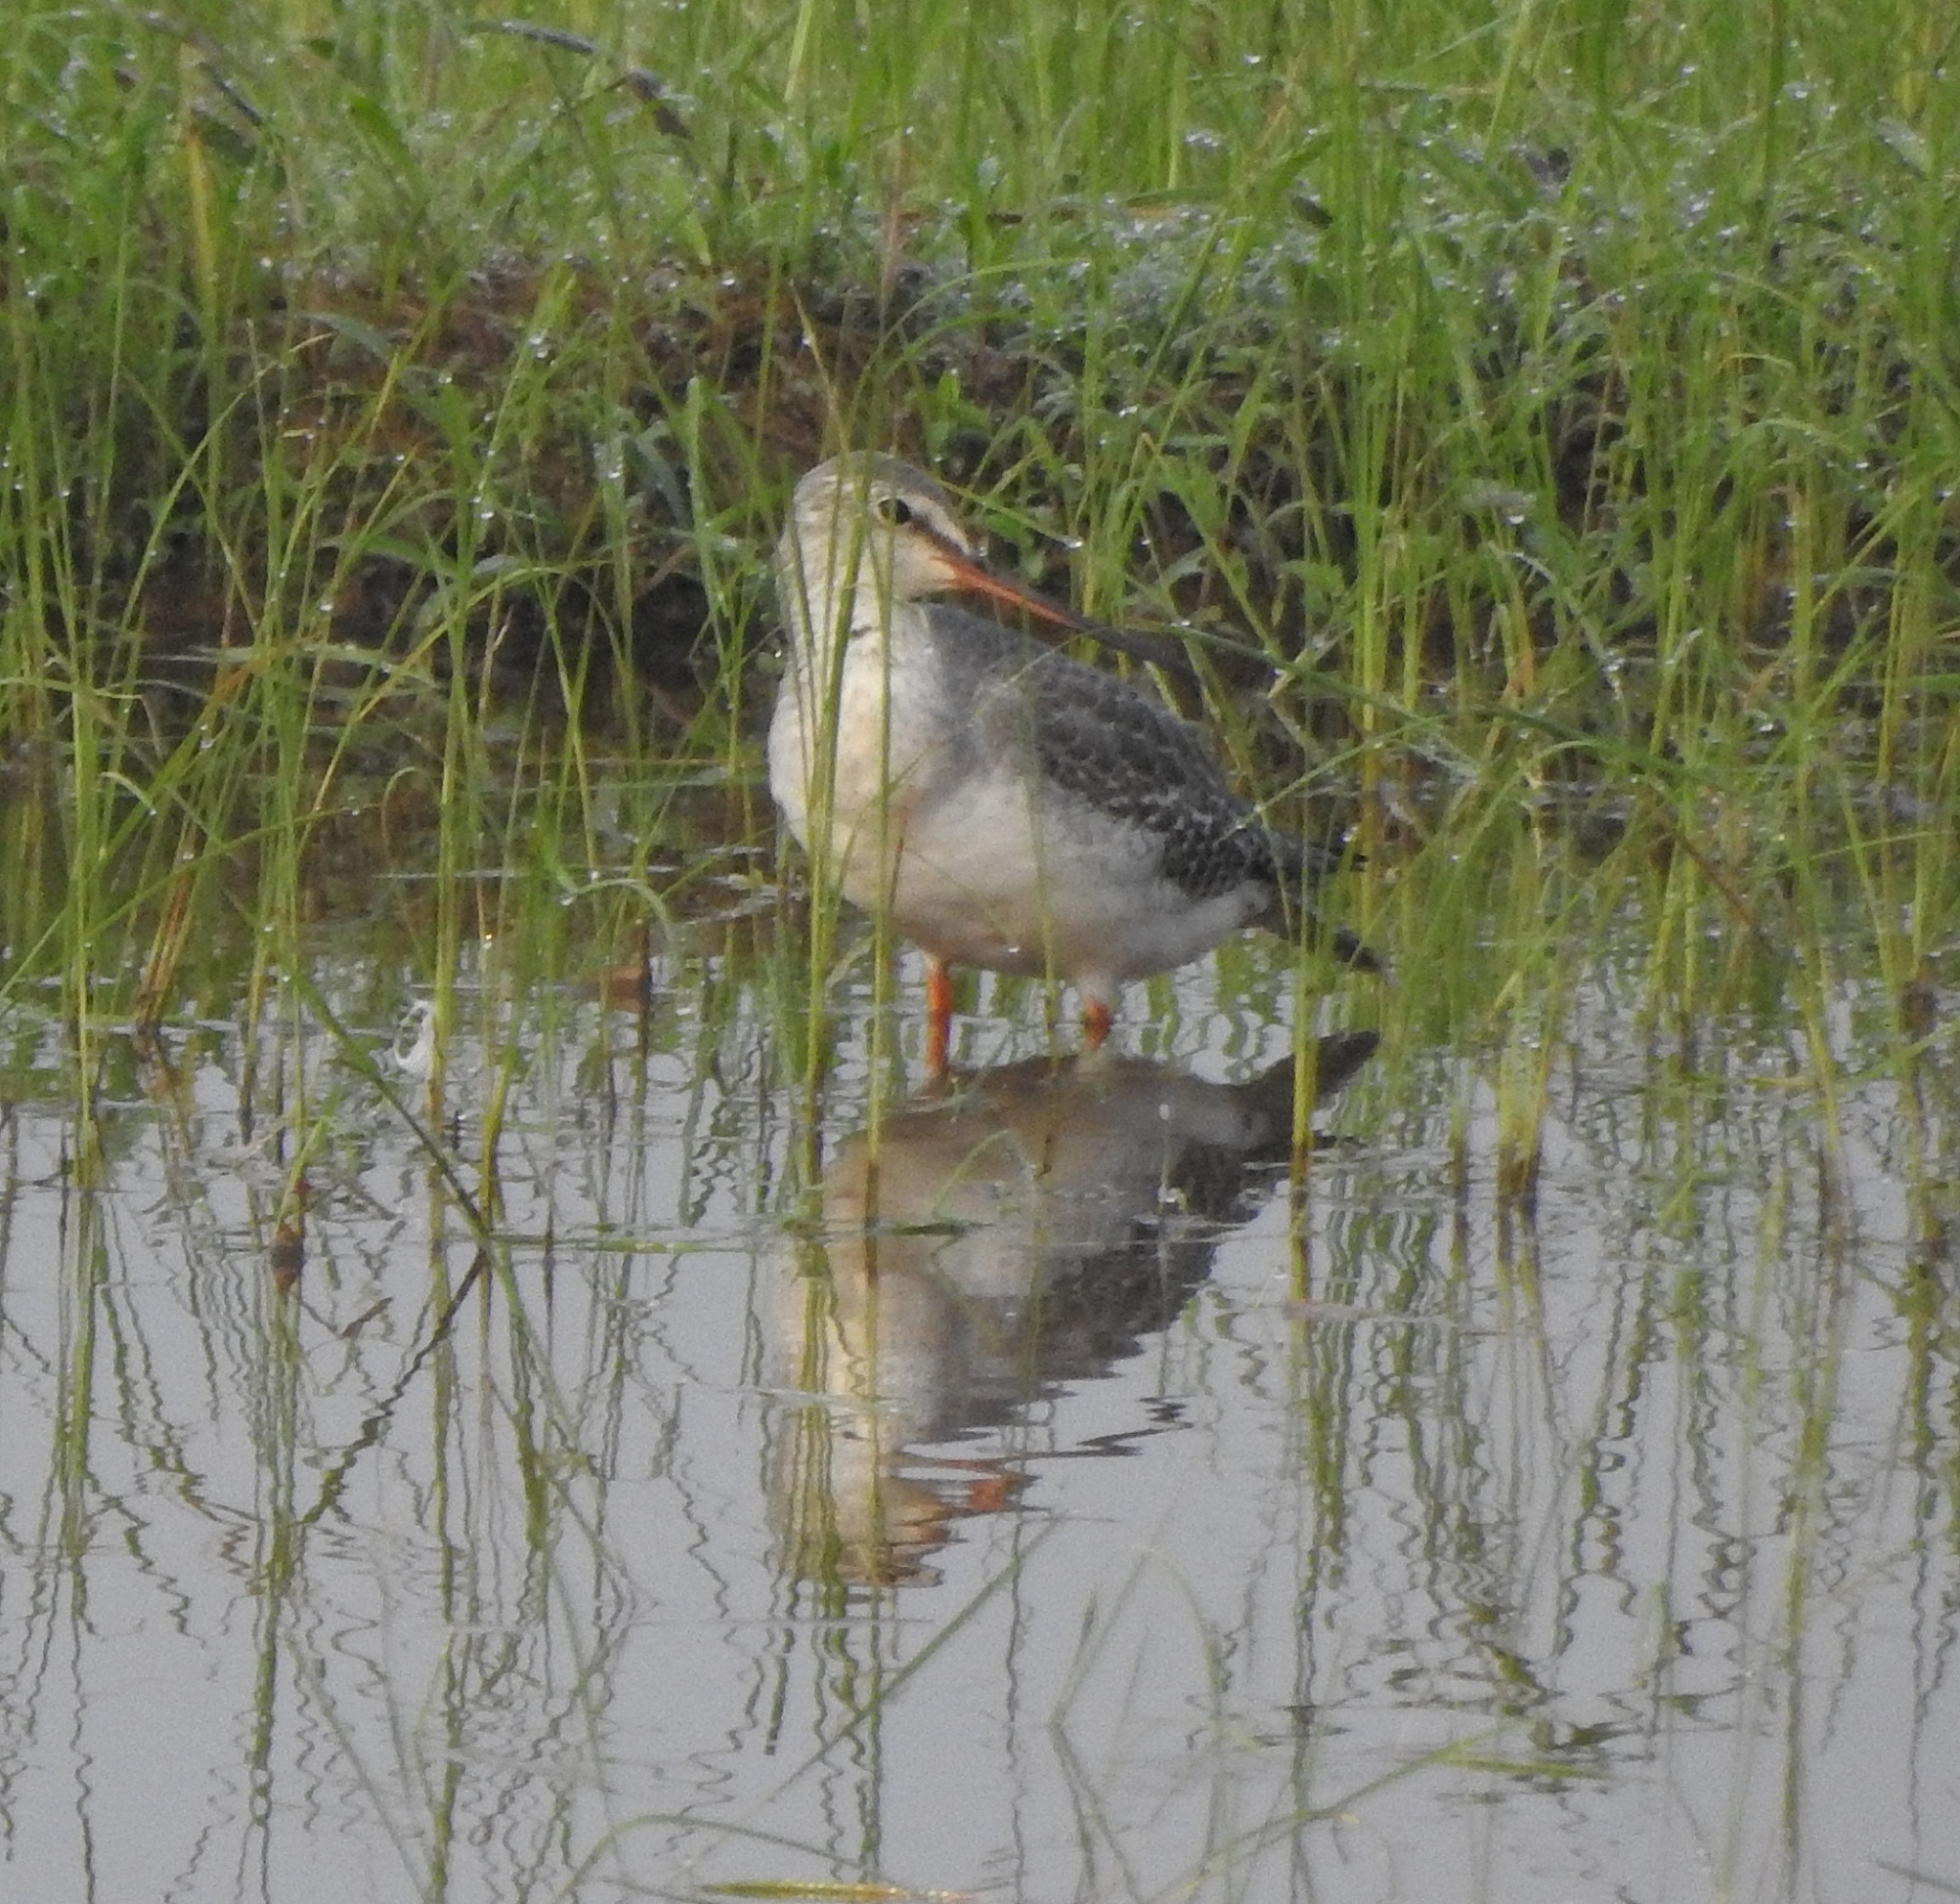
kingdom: Animalia
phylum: Chordata
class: Aves
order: Charadriiformes
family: Scolopacidae
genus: Tringa
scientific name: Tringa erythropus
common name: Spotted redshank
